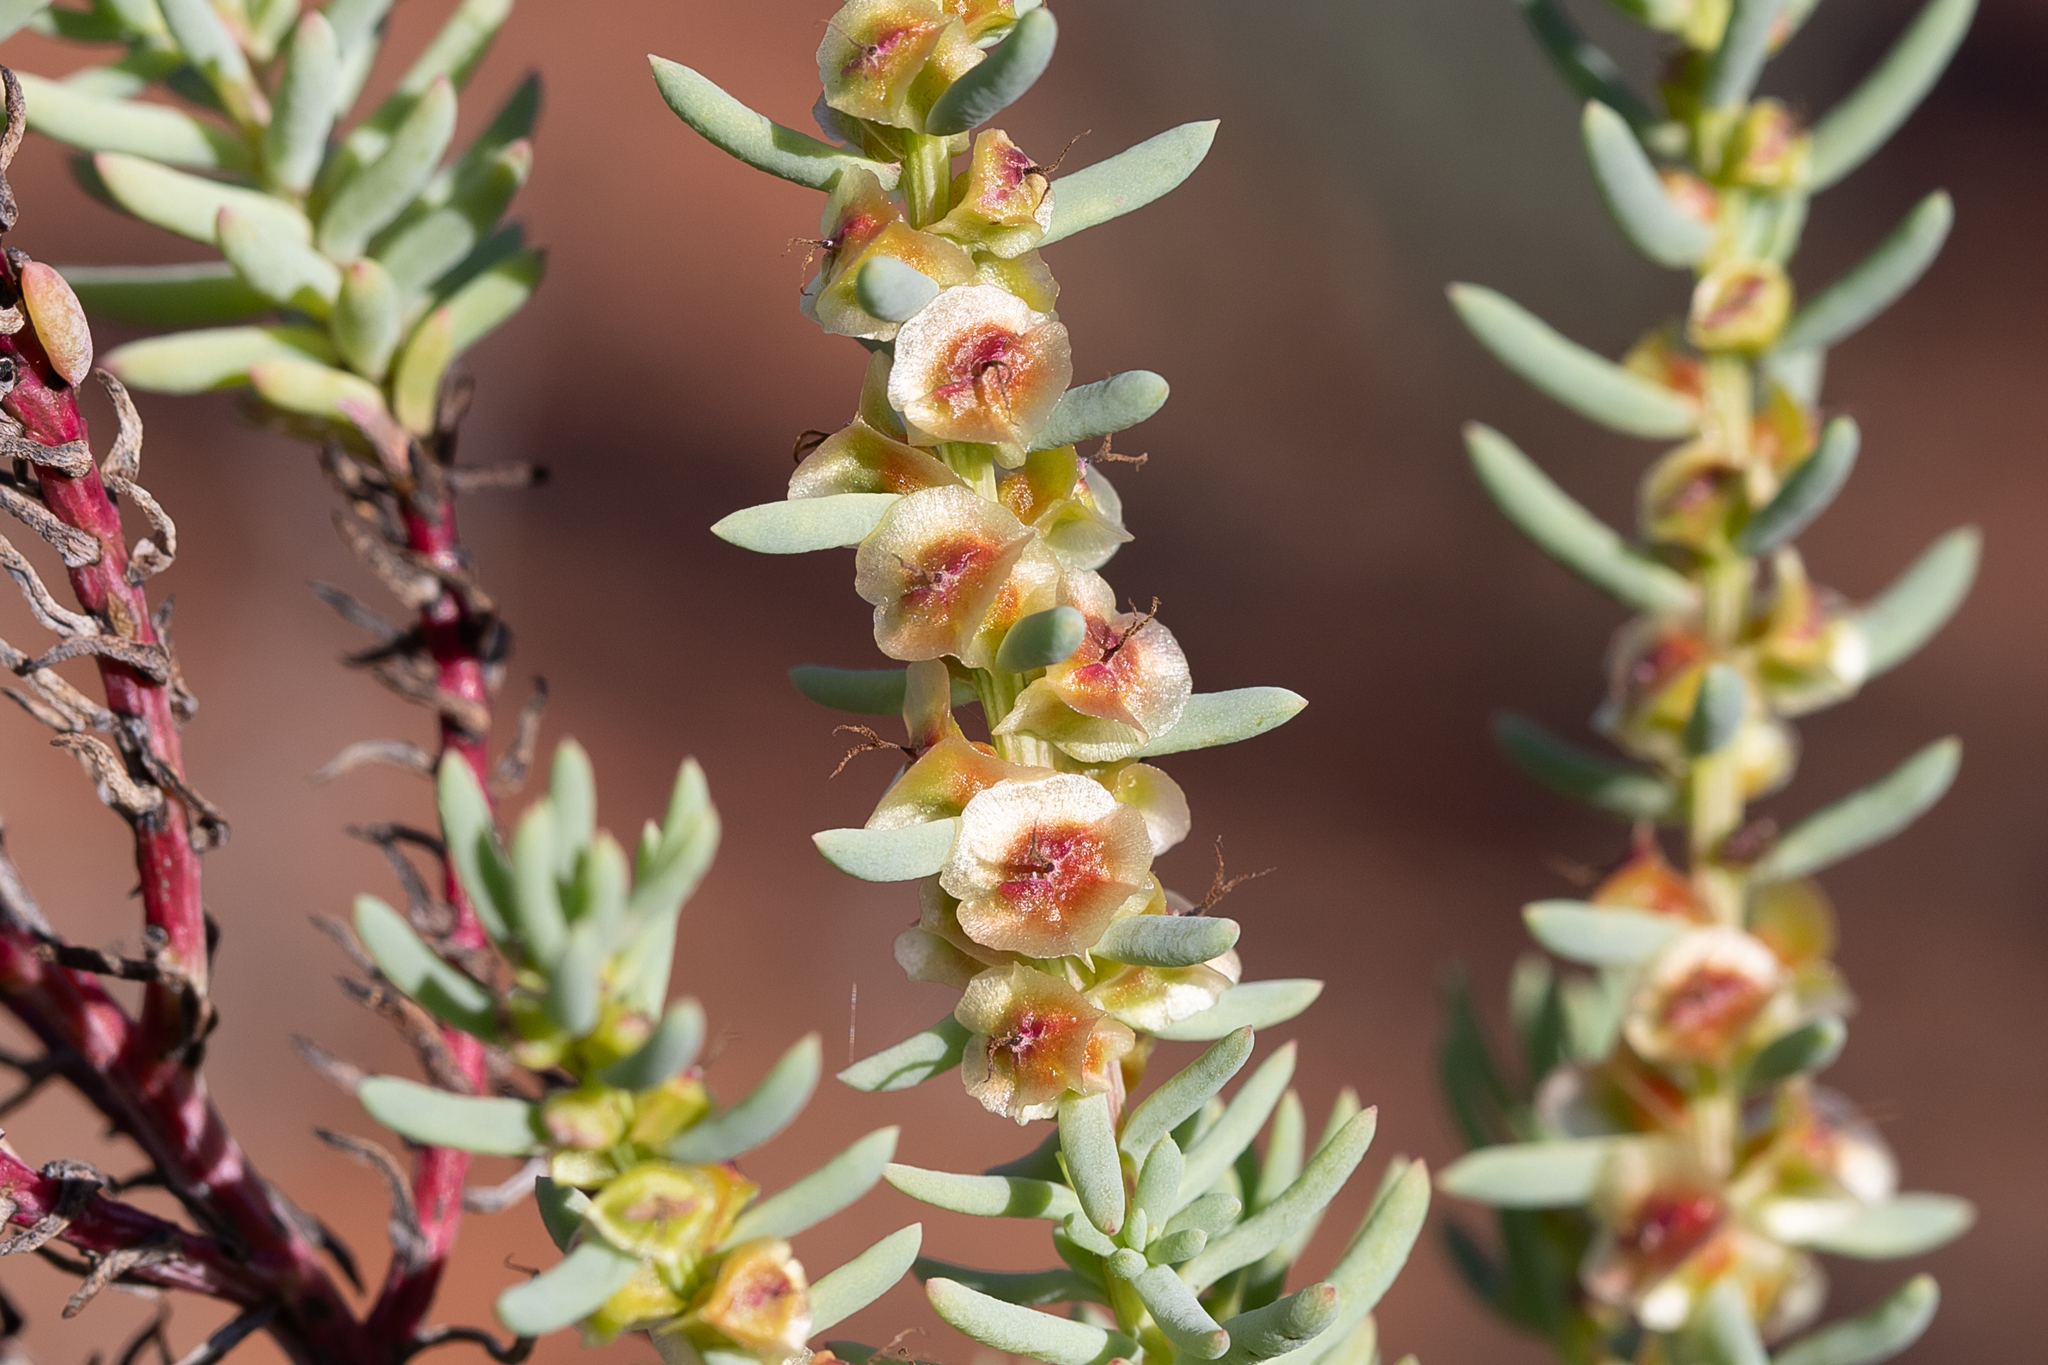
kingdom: Plantae
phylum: Tracheophyta
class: Magnoliopsida
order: Caryophyllales
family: Amaranthaceae
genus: Maireana
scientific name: Maireana triptera
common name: Three-wing bluebush
